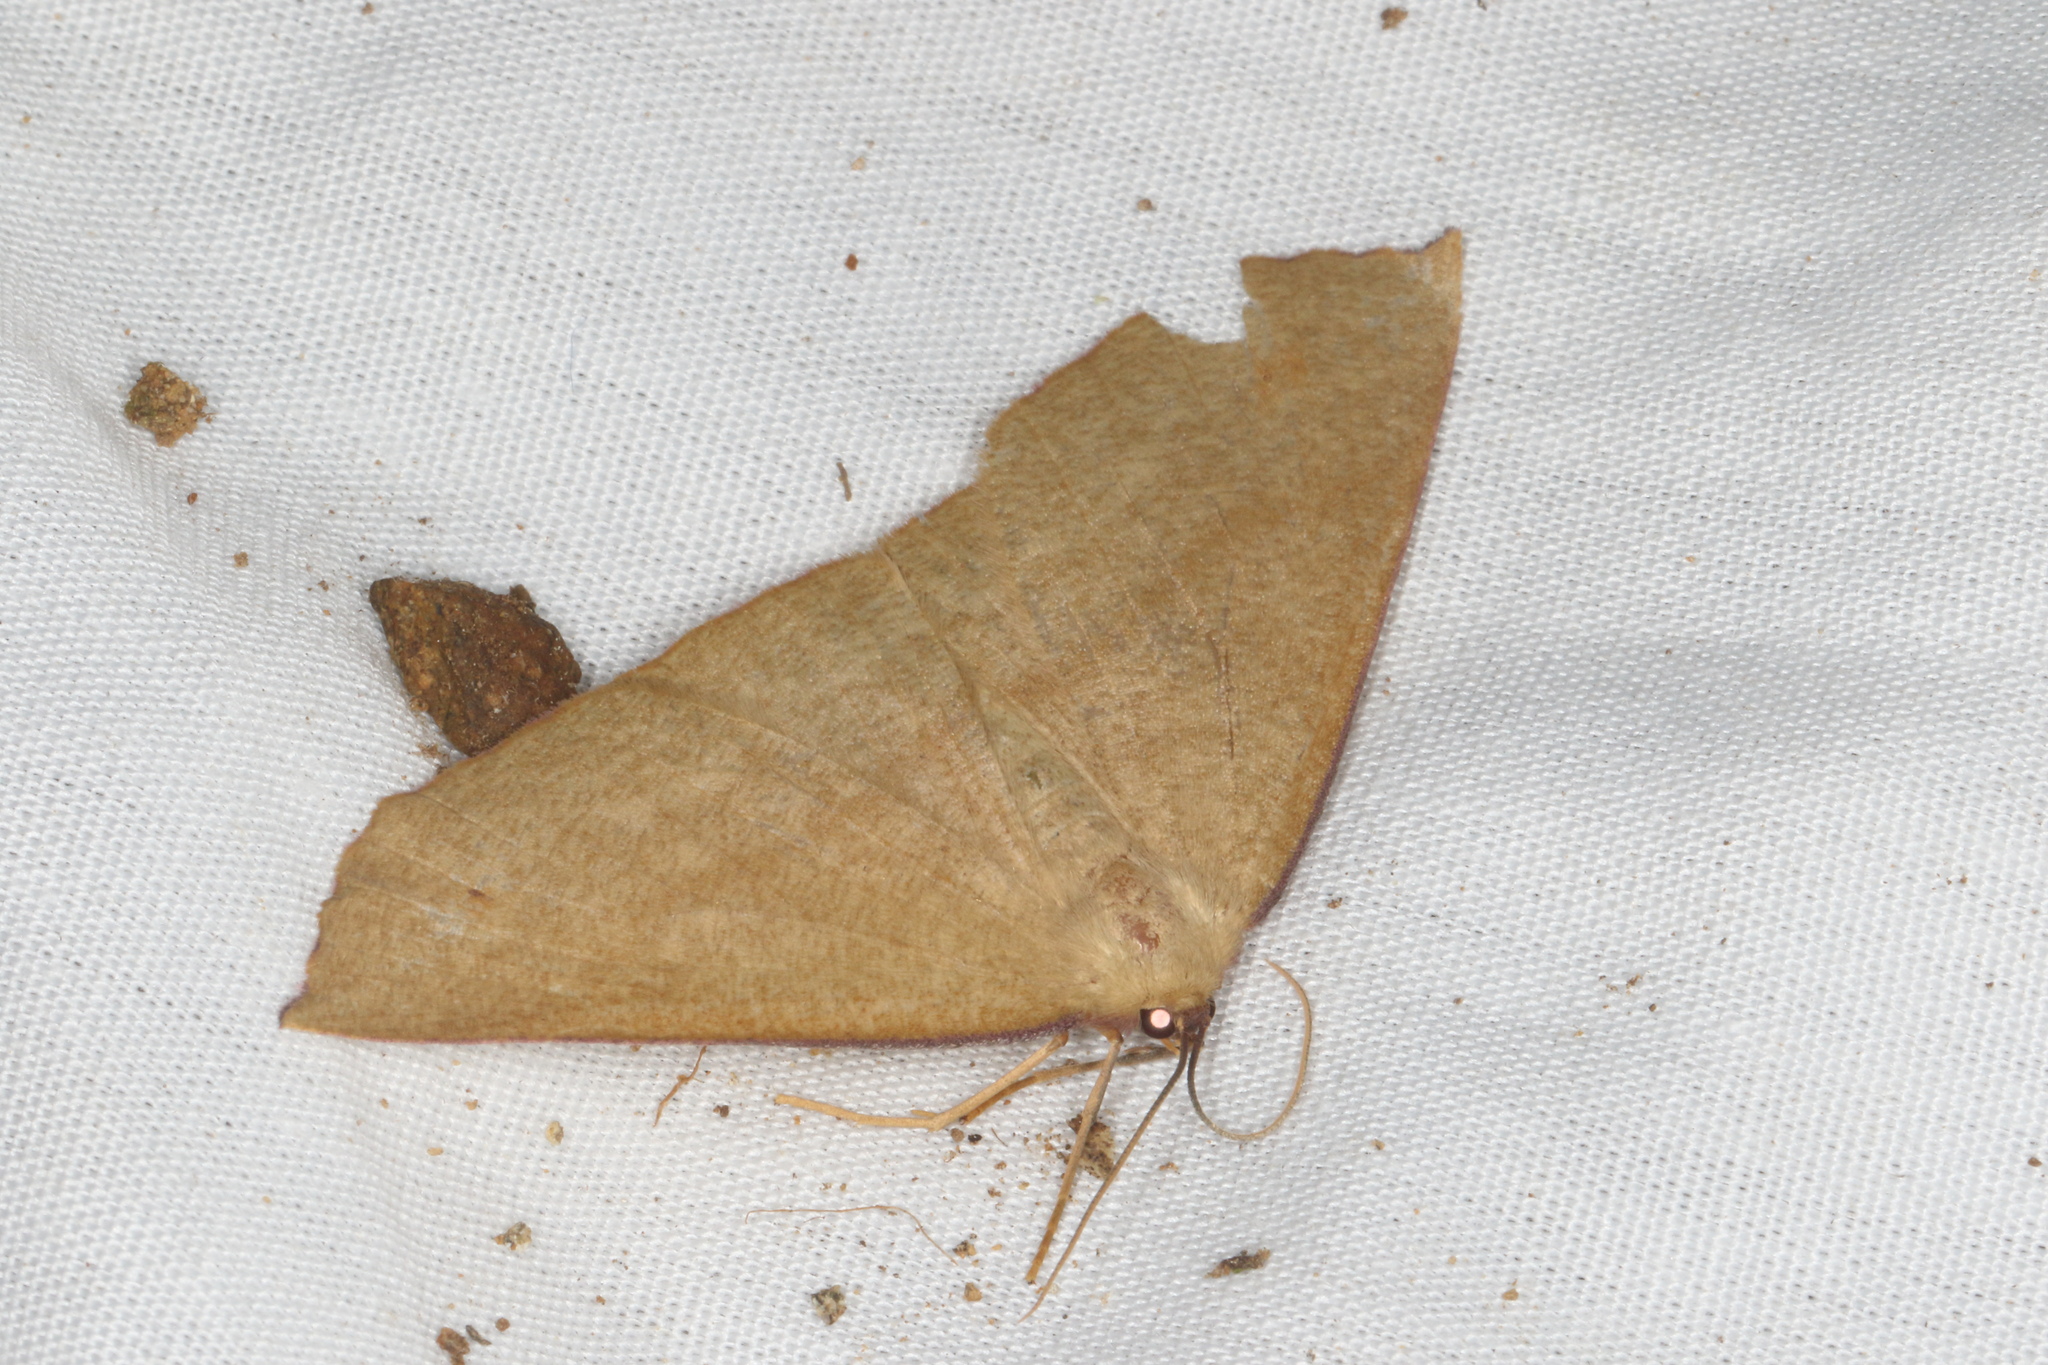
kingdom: Animalia
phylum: Arthropoda
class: Insecta
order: Lepidoptera
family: Geometridae
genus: Xyridacma
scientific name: Xyridacma alectoraria
